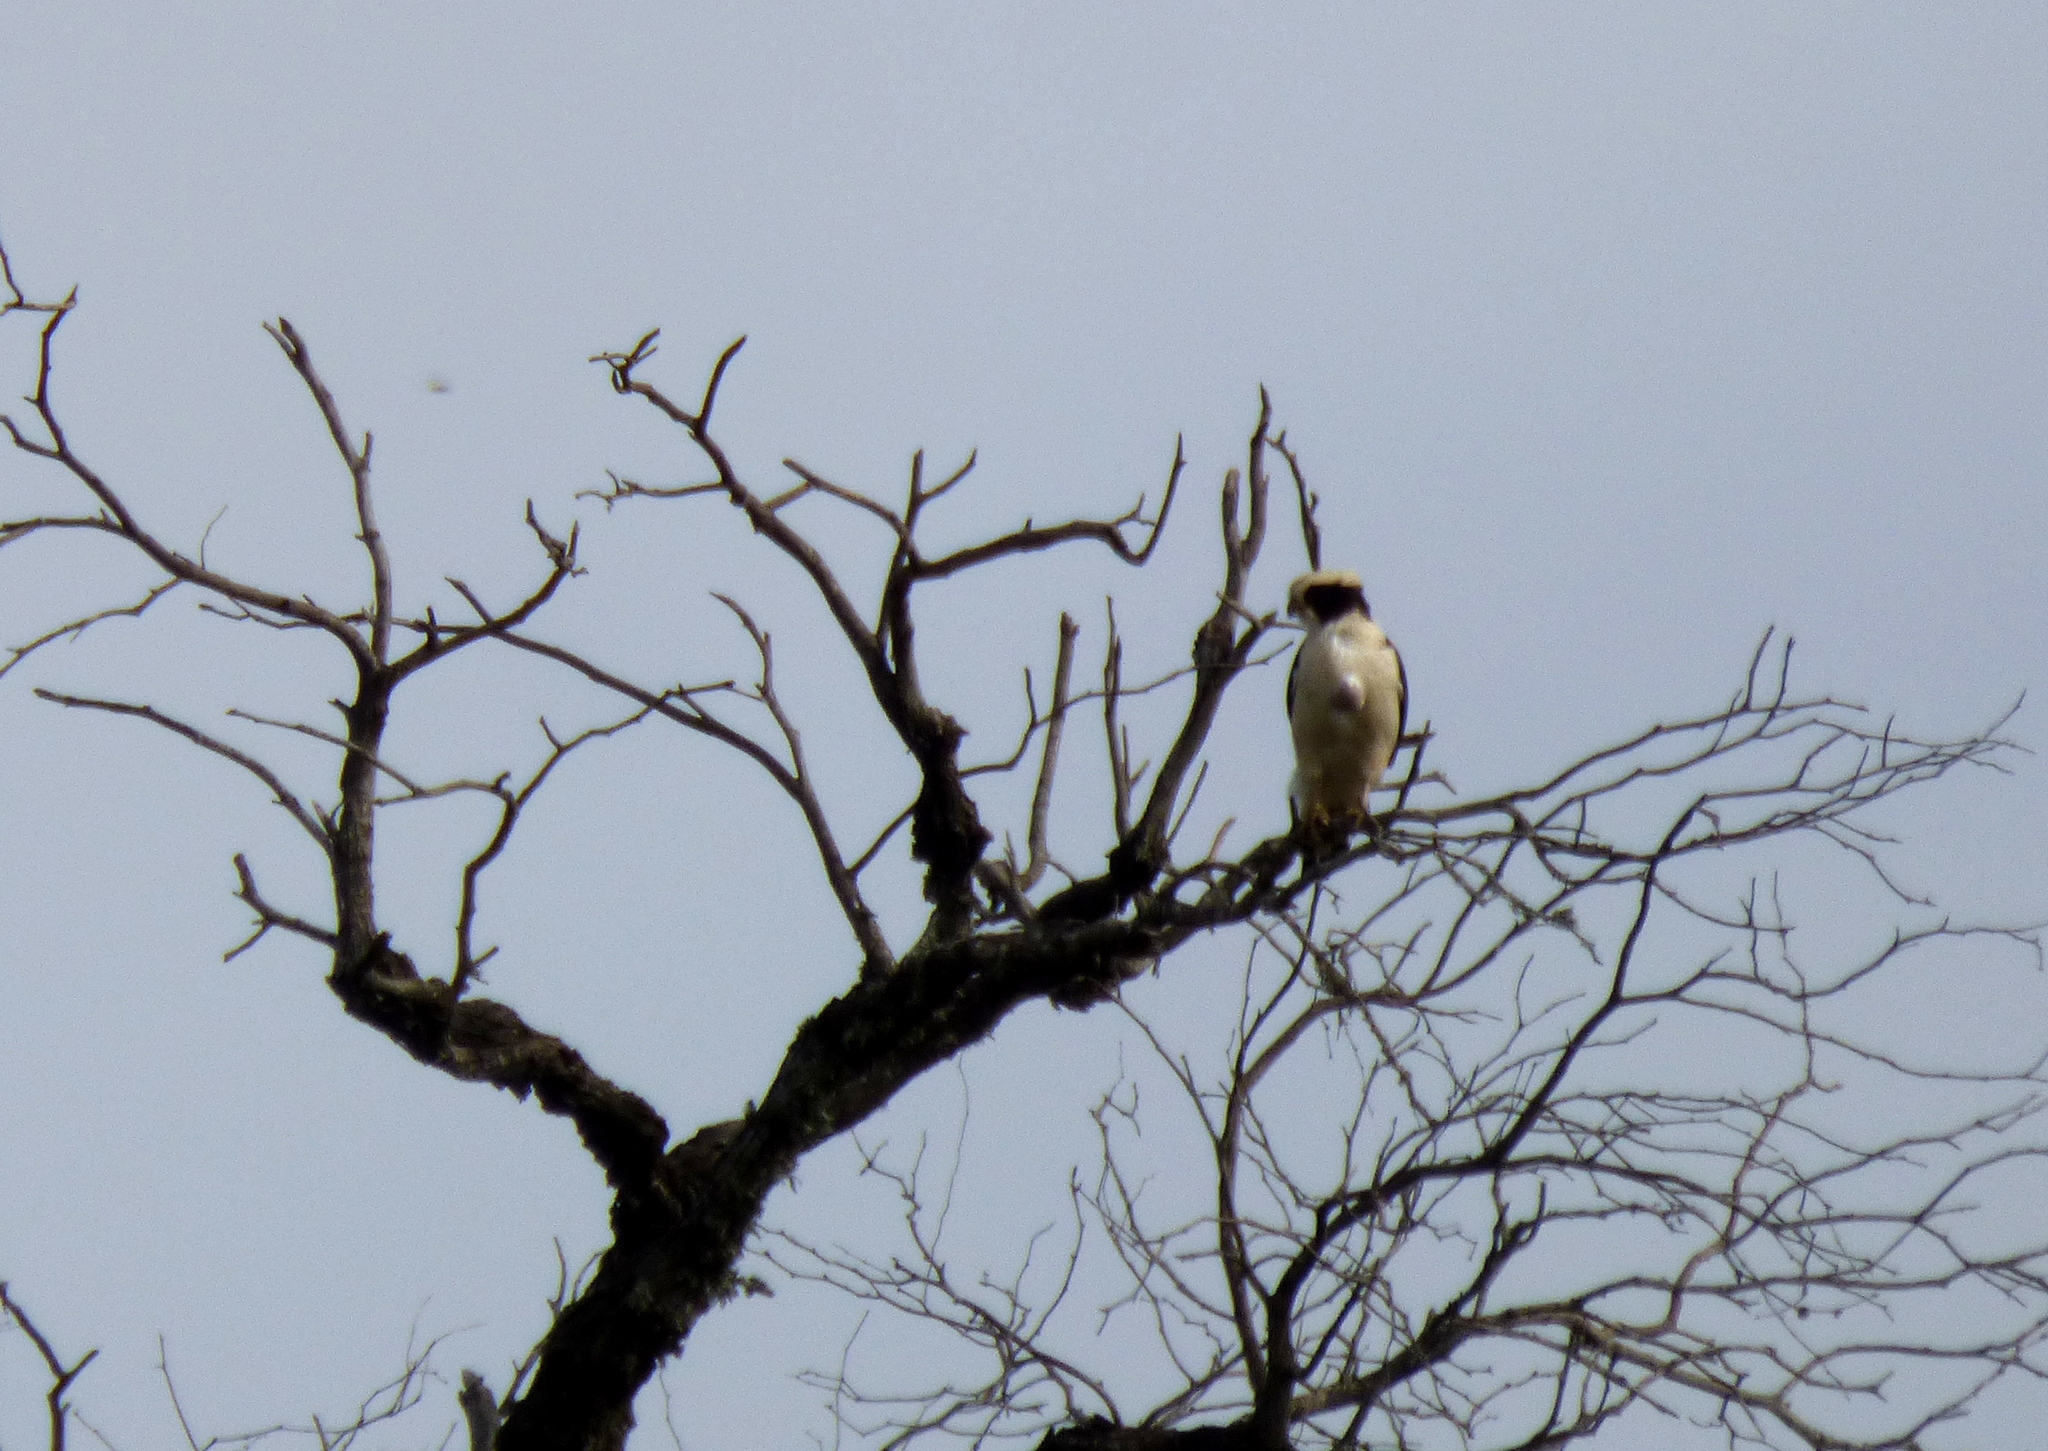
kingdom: Animalia
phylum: Chordata
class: Aves
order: Falconiformes
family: Falconidae
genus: Herpetotheres
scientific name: Herpetotheres cachinnans
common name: Laughing falcon
